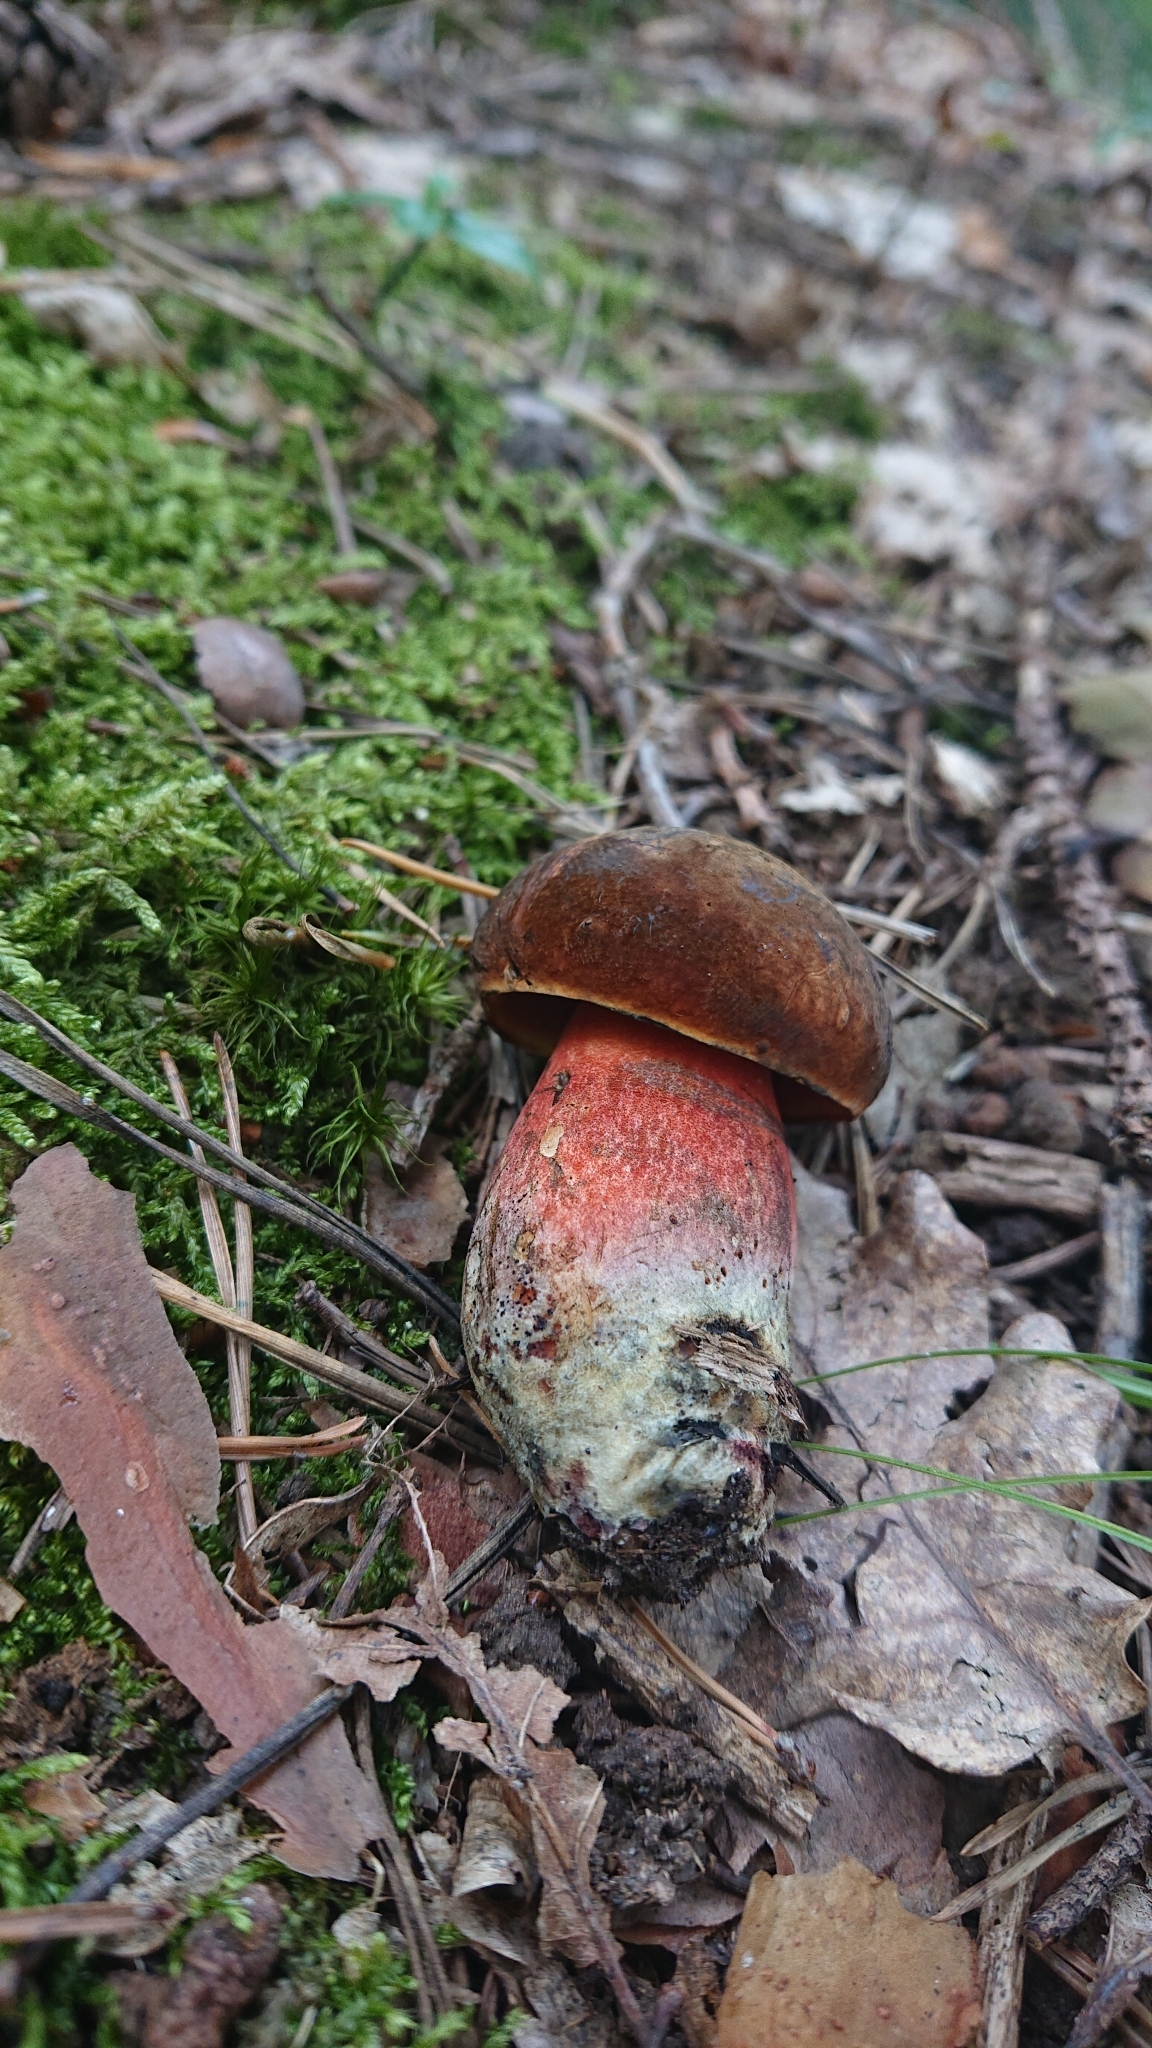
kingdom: Fungi
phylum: Basidiomycota
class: Agaricomycetes
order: Boletales
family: Boletaceae
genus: Neoboletus
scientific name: Neoboletus erythropus
